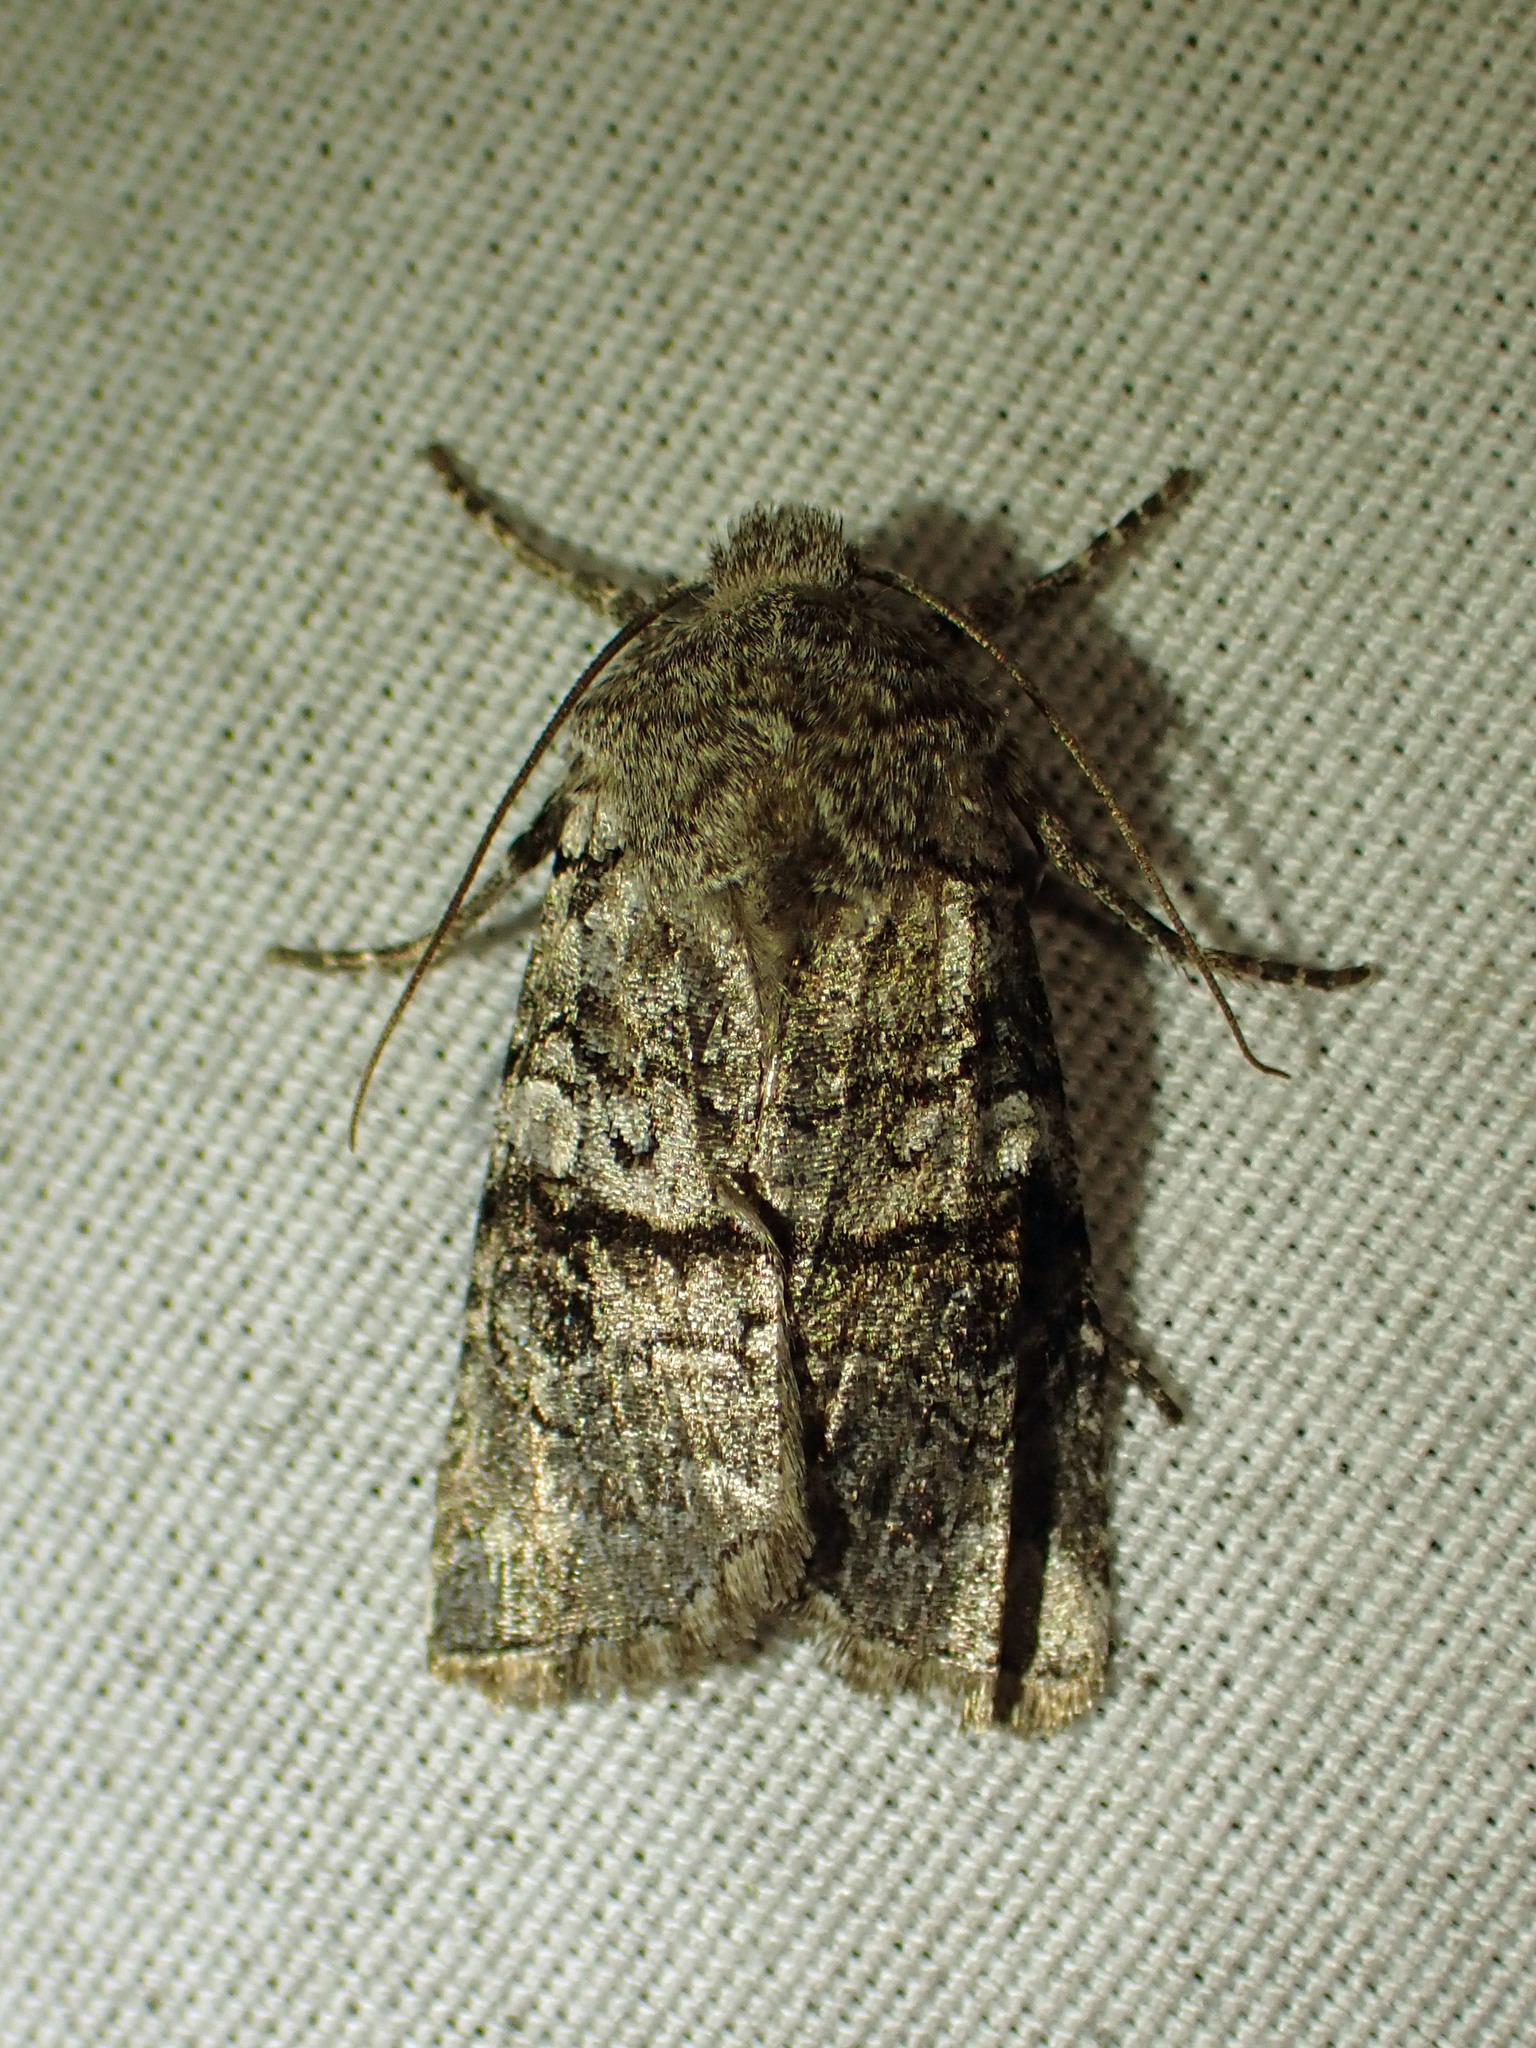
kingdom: Animalia
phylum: Arthropoda
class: Insecta
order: Lepidoptera
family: Noctuidae
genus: Litholomia
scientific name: Litholomia napaea
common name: False pinion moth
